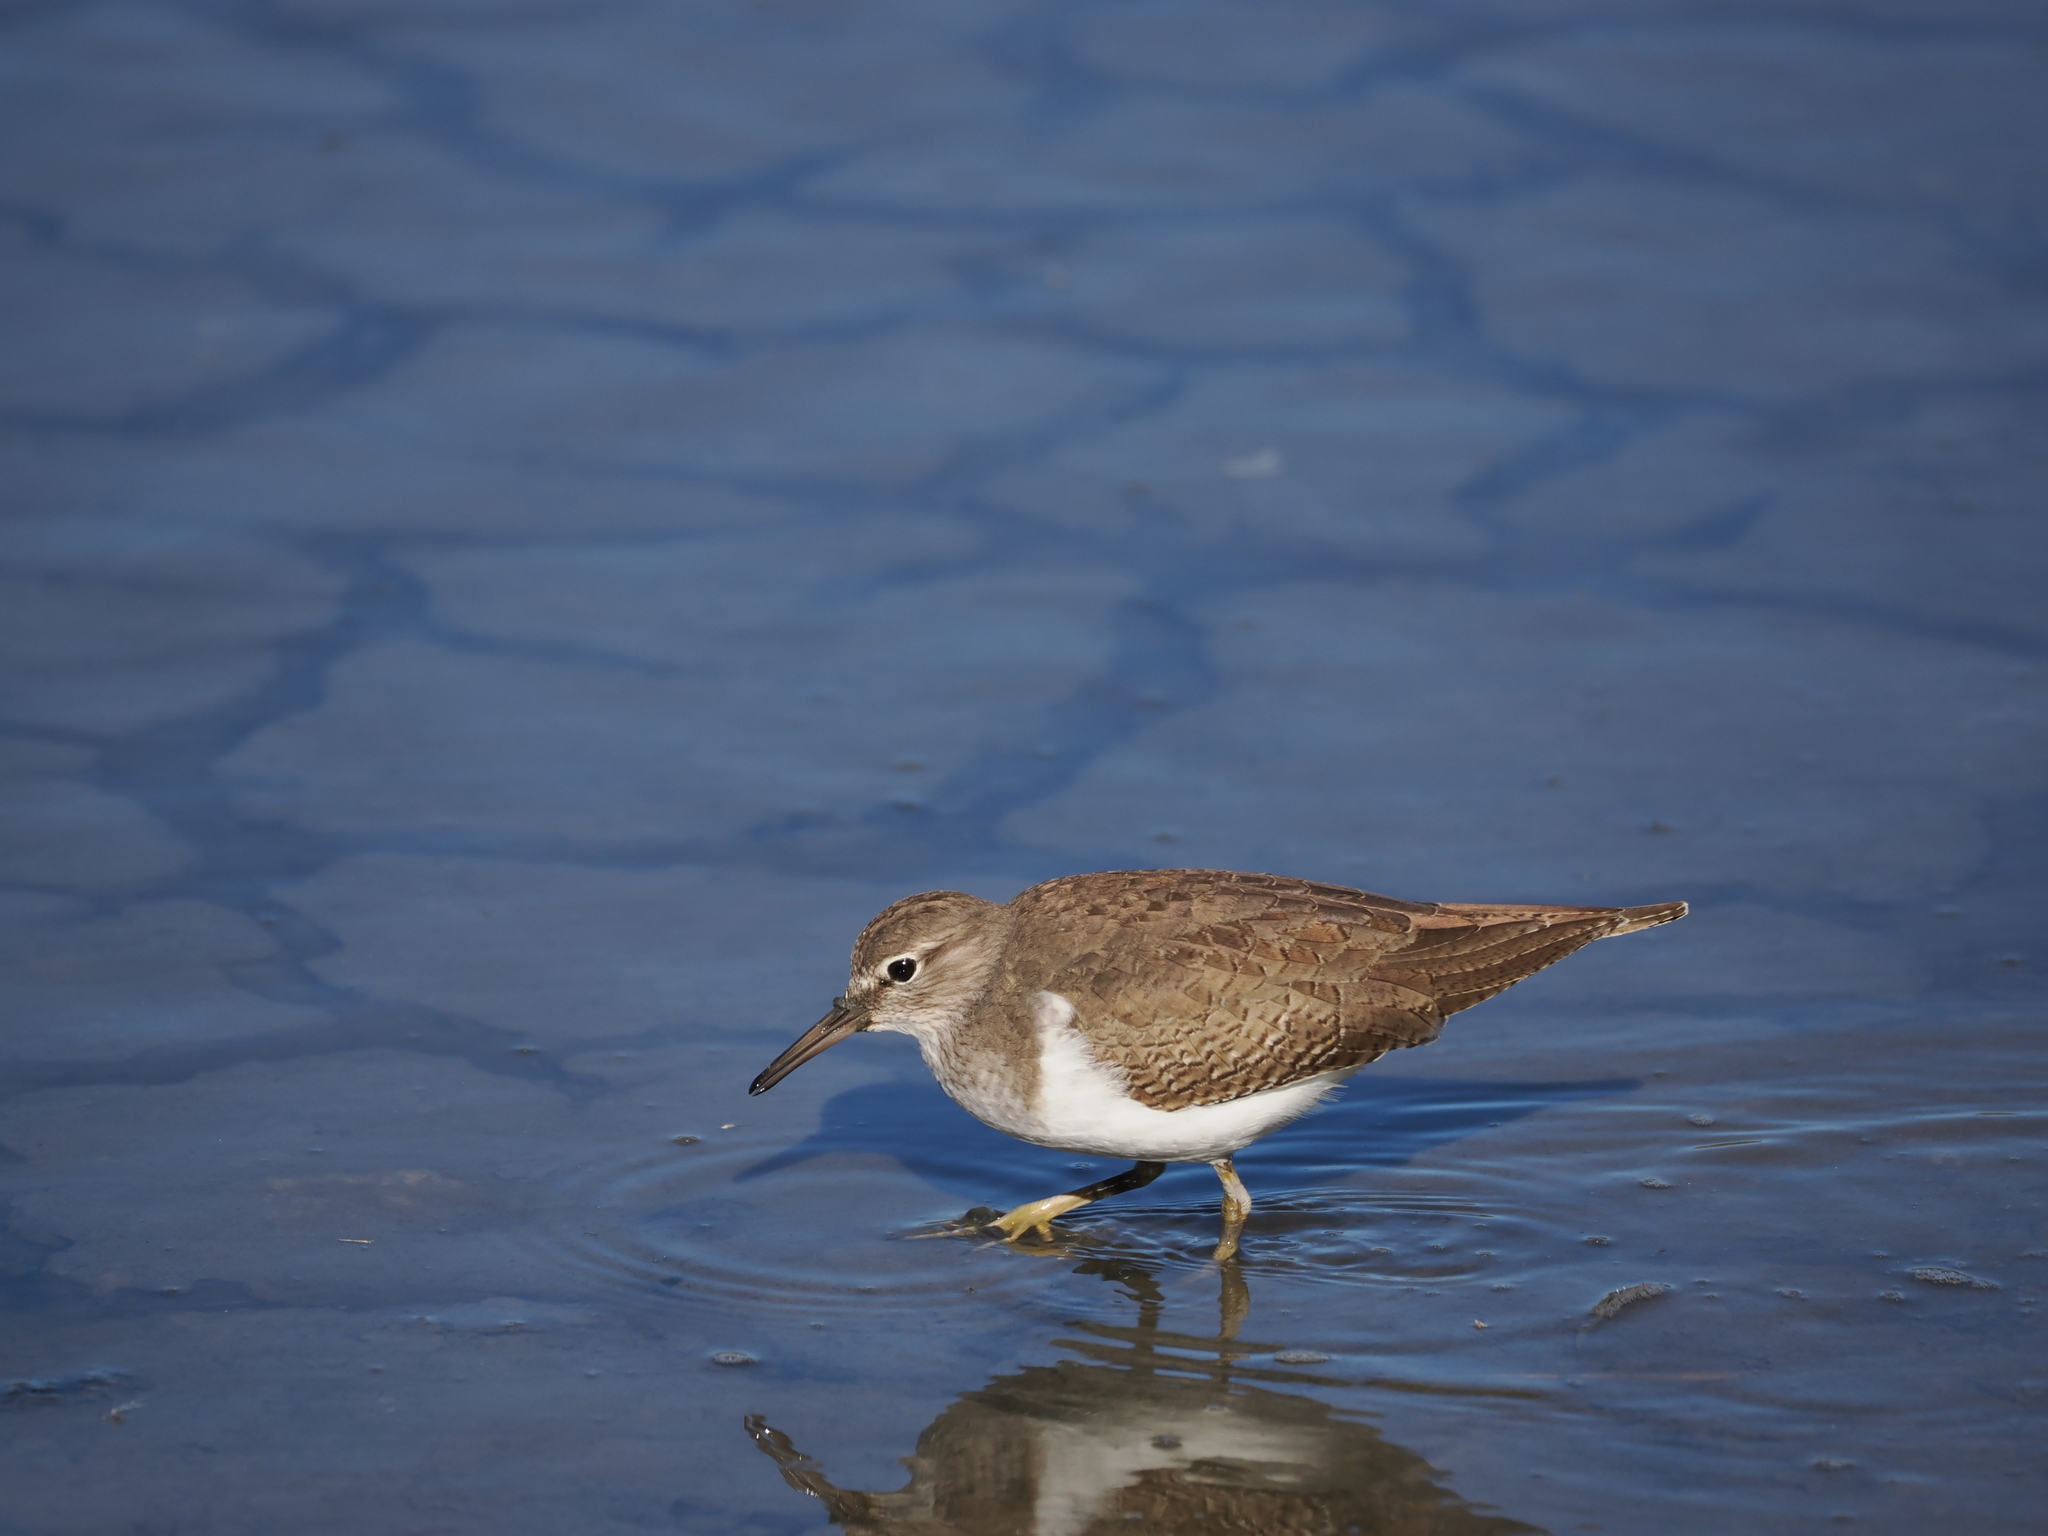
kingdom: Animalia
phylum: Chordata
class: Aves
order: Charadriiformes
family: Scolopacidae
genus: Actitis
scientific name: Actitis hypoleucos
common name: Common sandpiper
